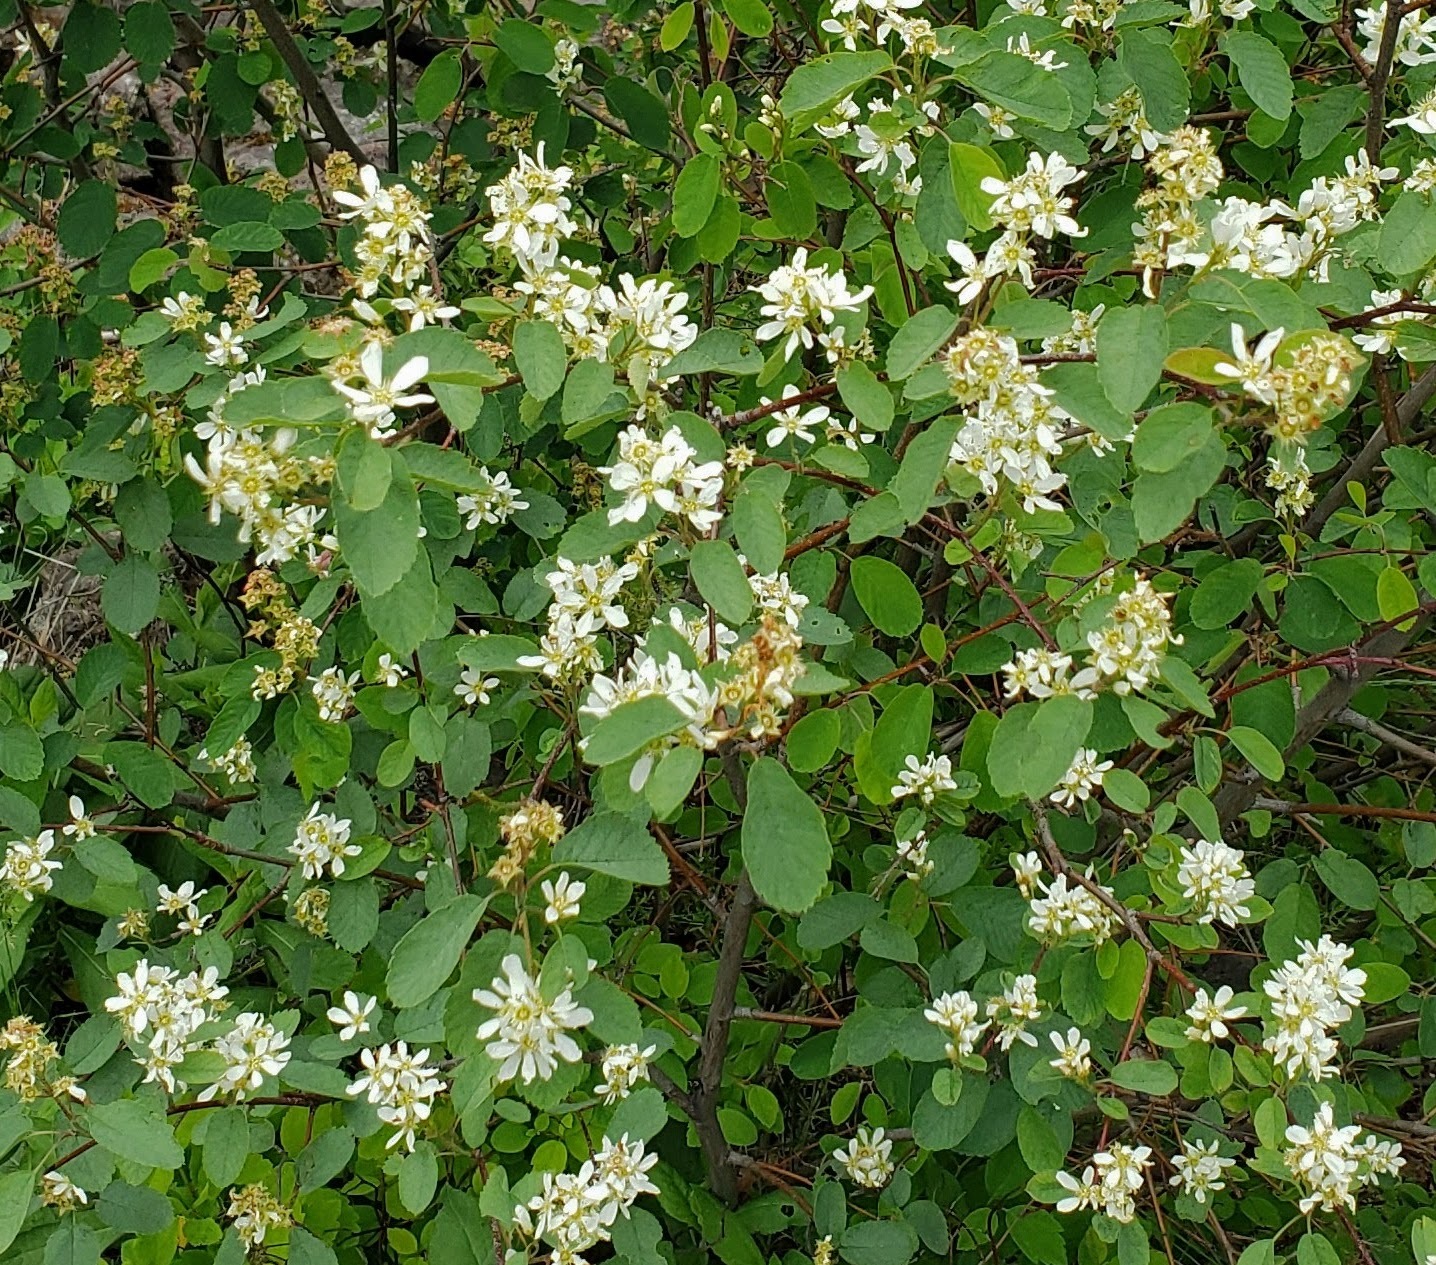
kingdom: Plantae
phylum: Tracheophyta
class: Magnoliopsida
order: Rosales
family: Rosaceae
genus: Amelanchier
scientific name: Amelanchier alnifolia
